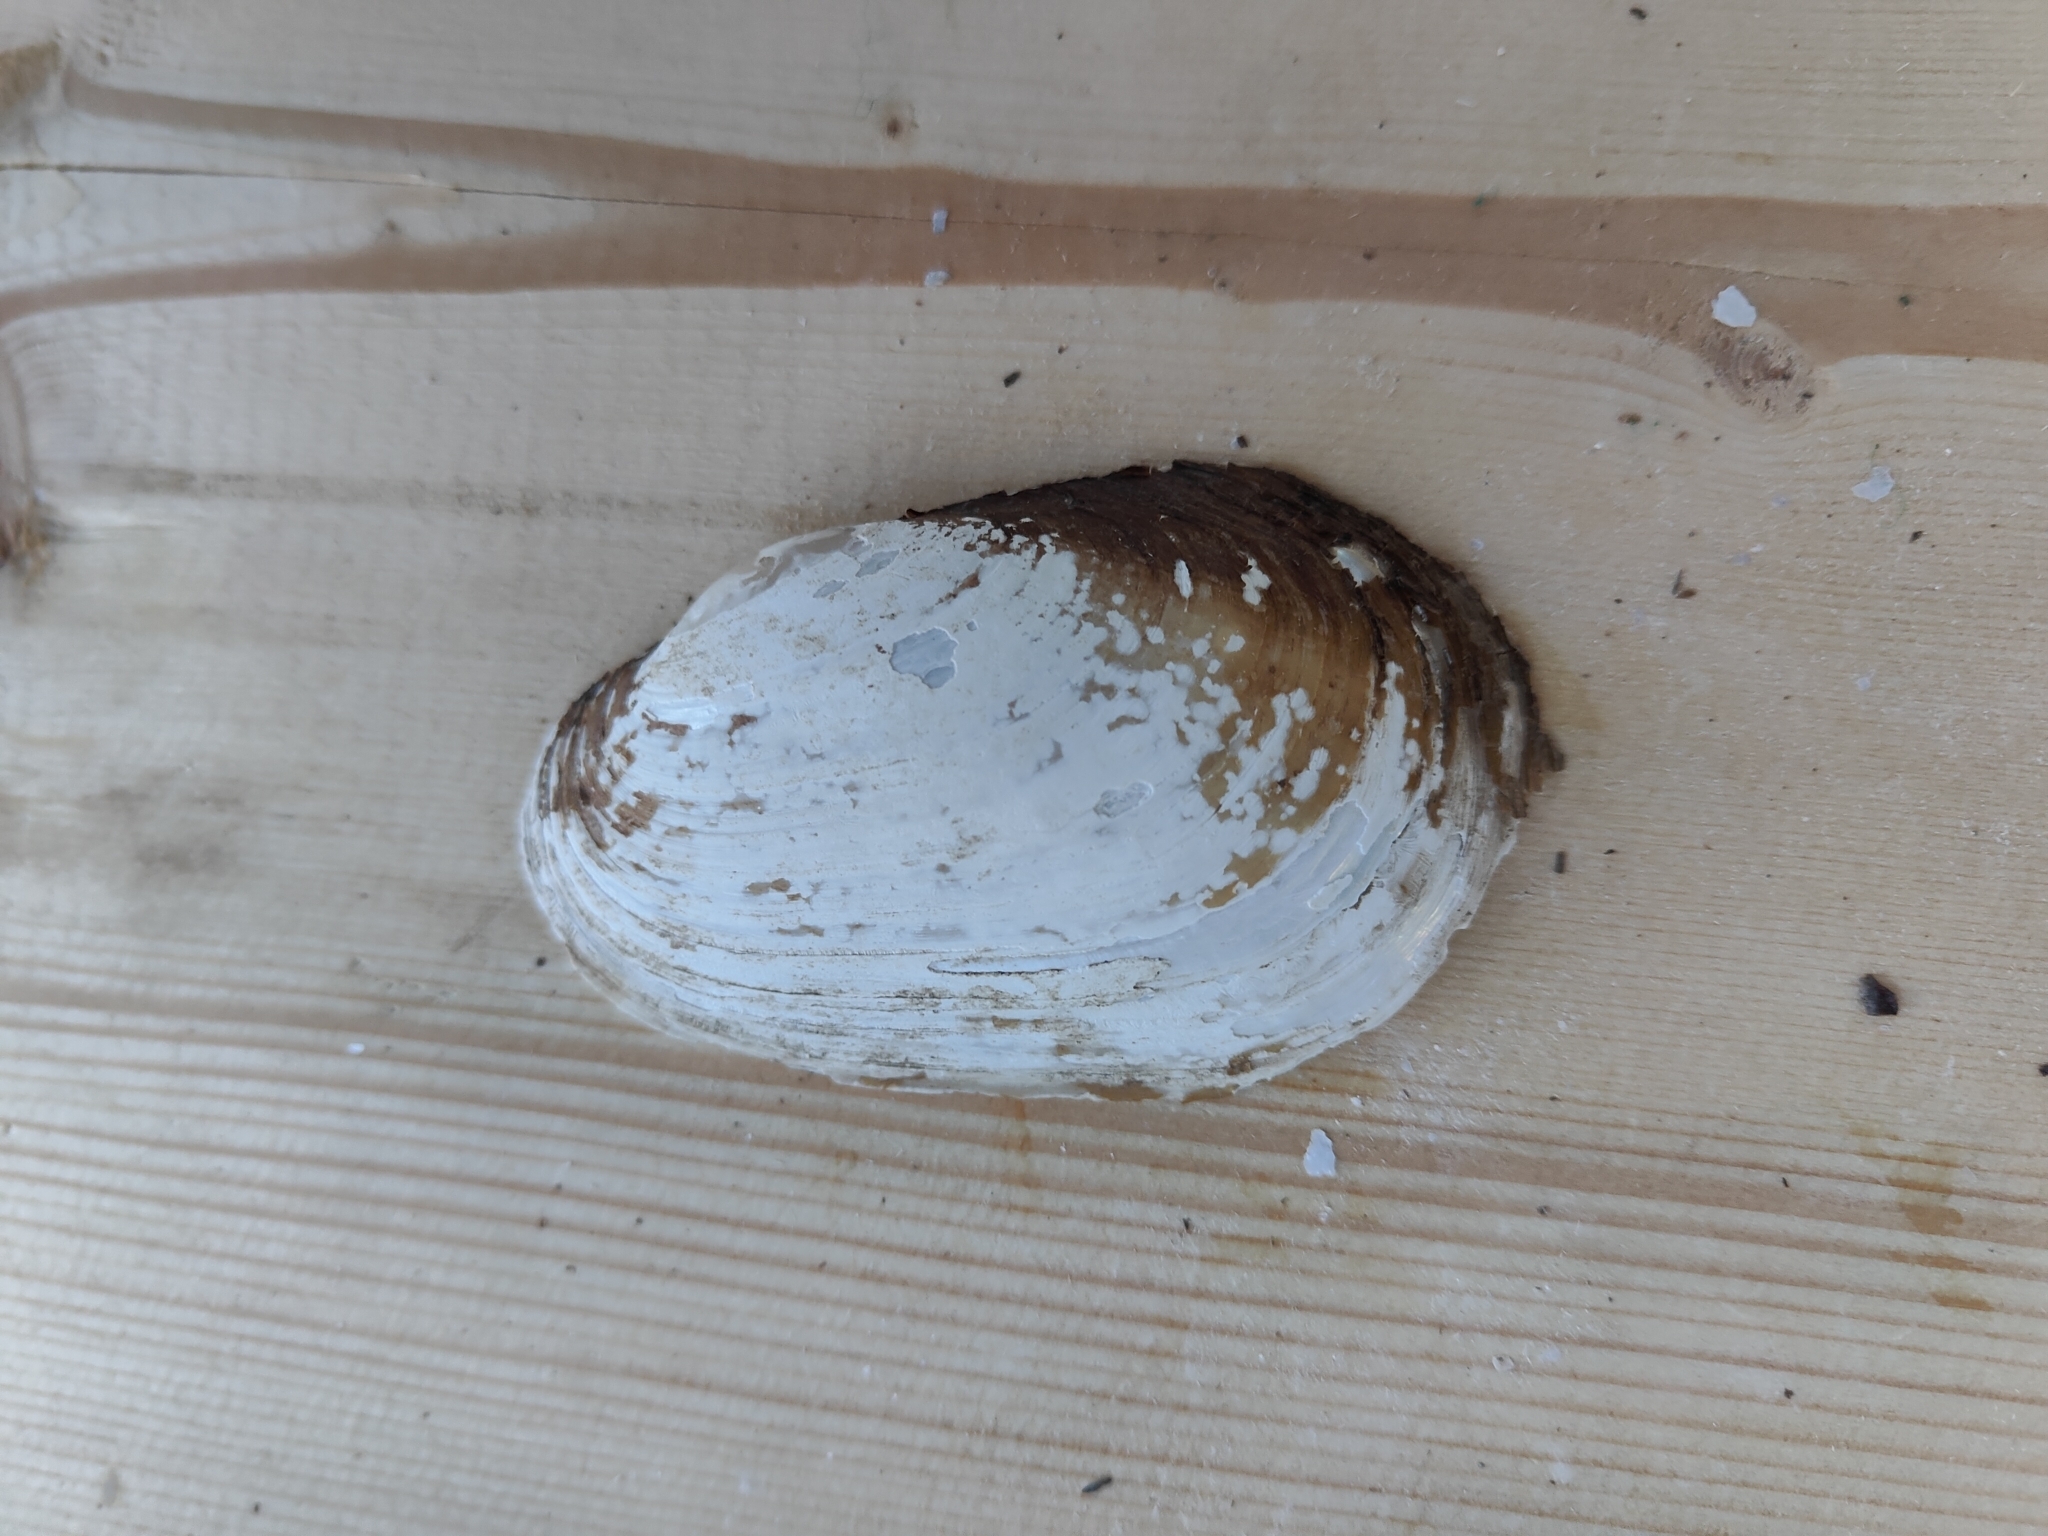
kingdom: Animalia
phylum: Mollusca
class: Bivalvia
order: Unionida
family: Unionidae
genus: Lampsilis
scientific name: Lampsilis siliquoidea
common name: Fatmucket
